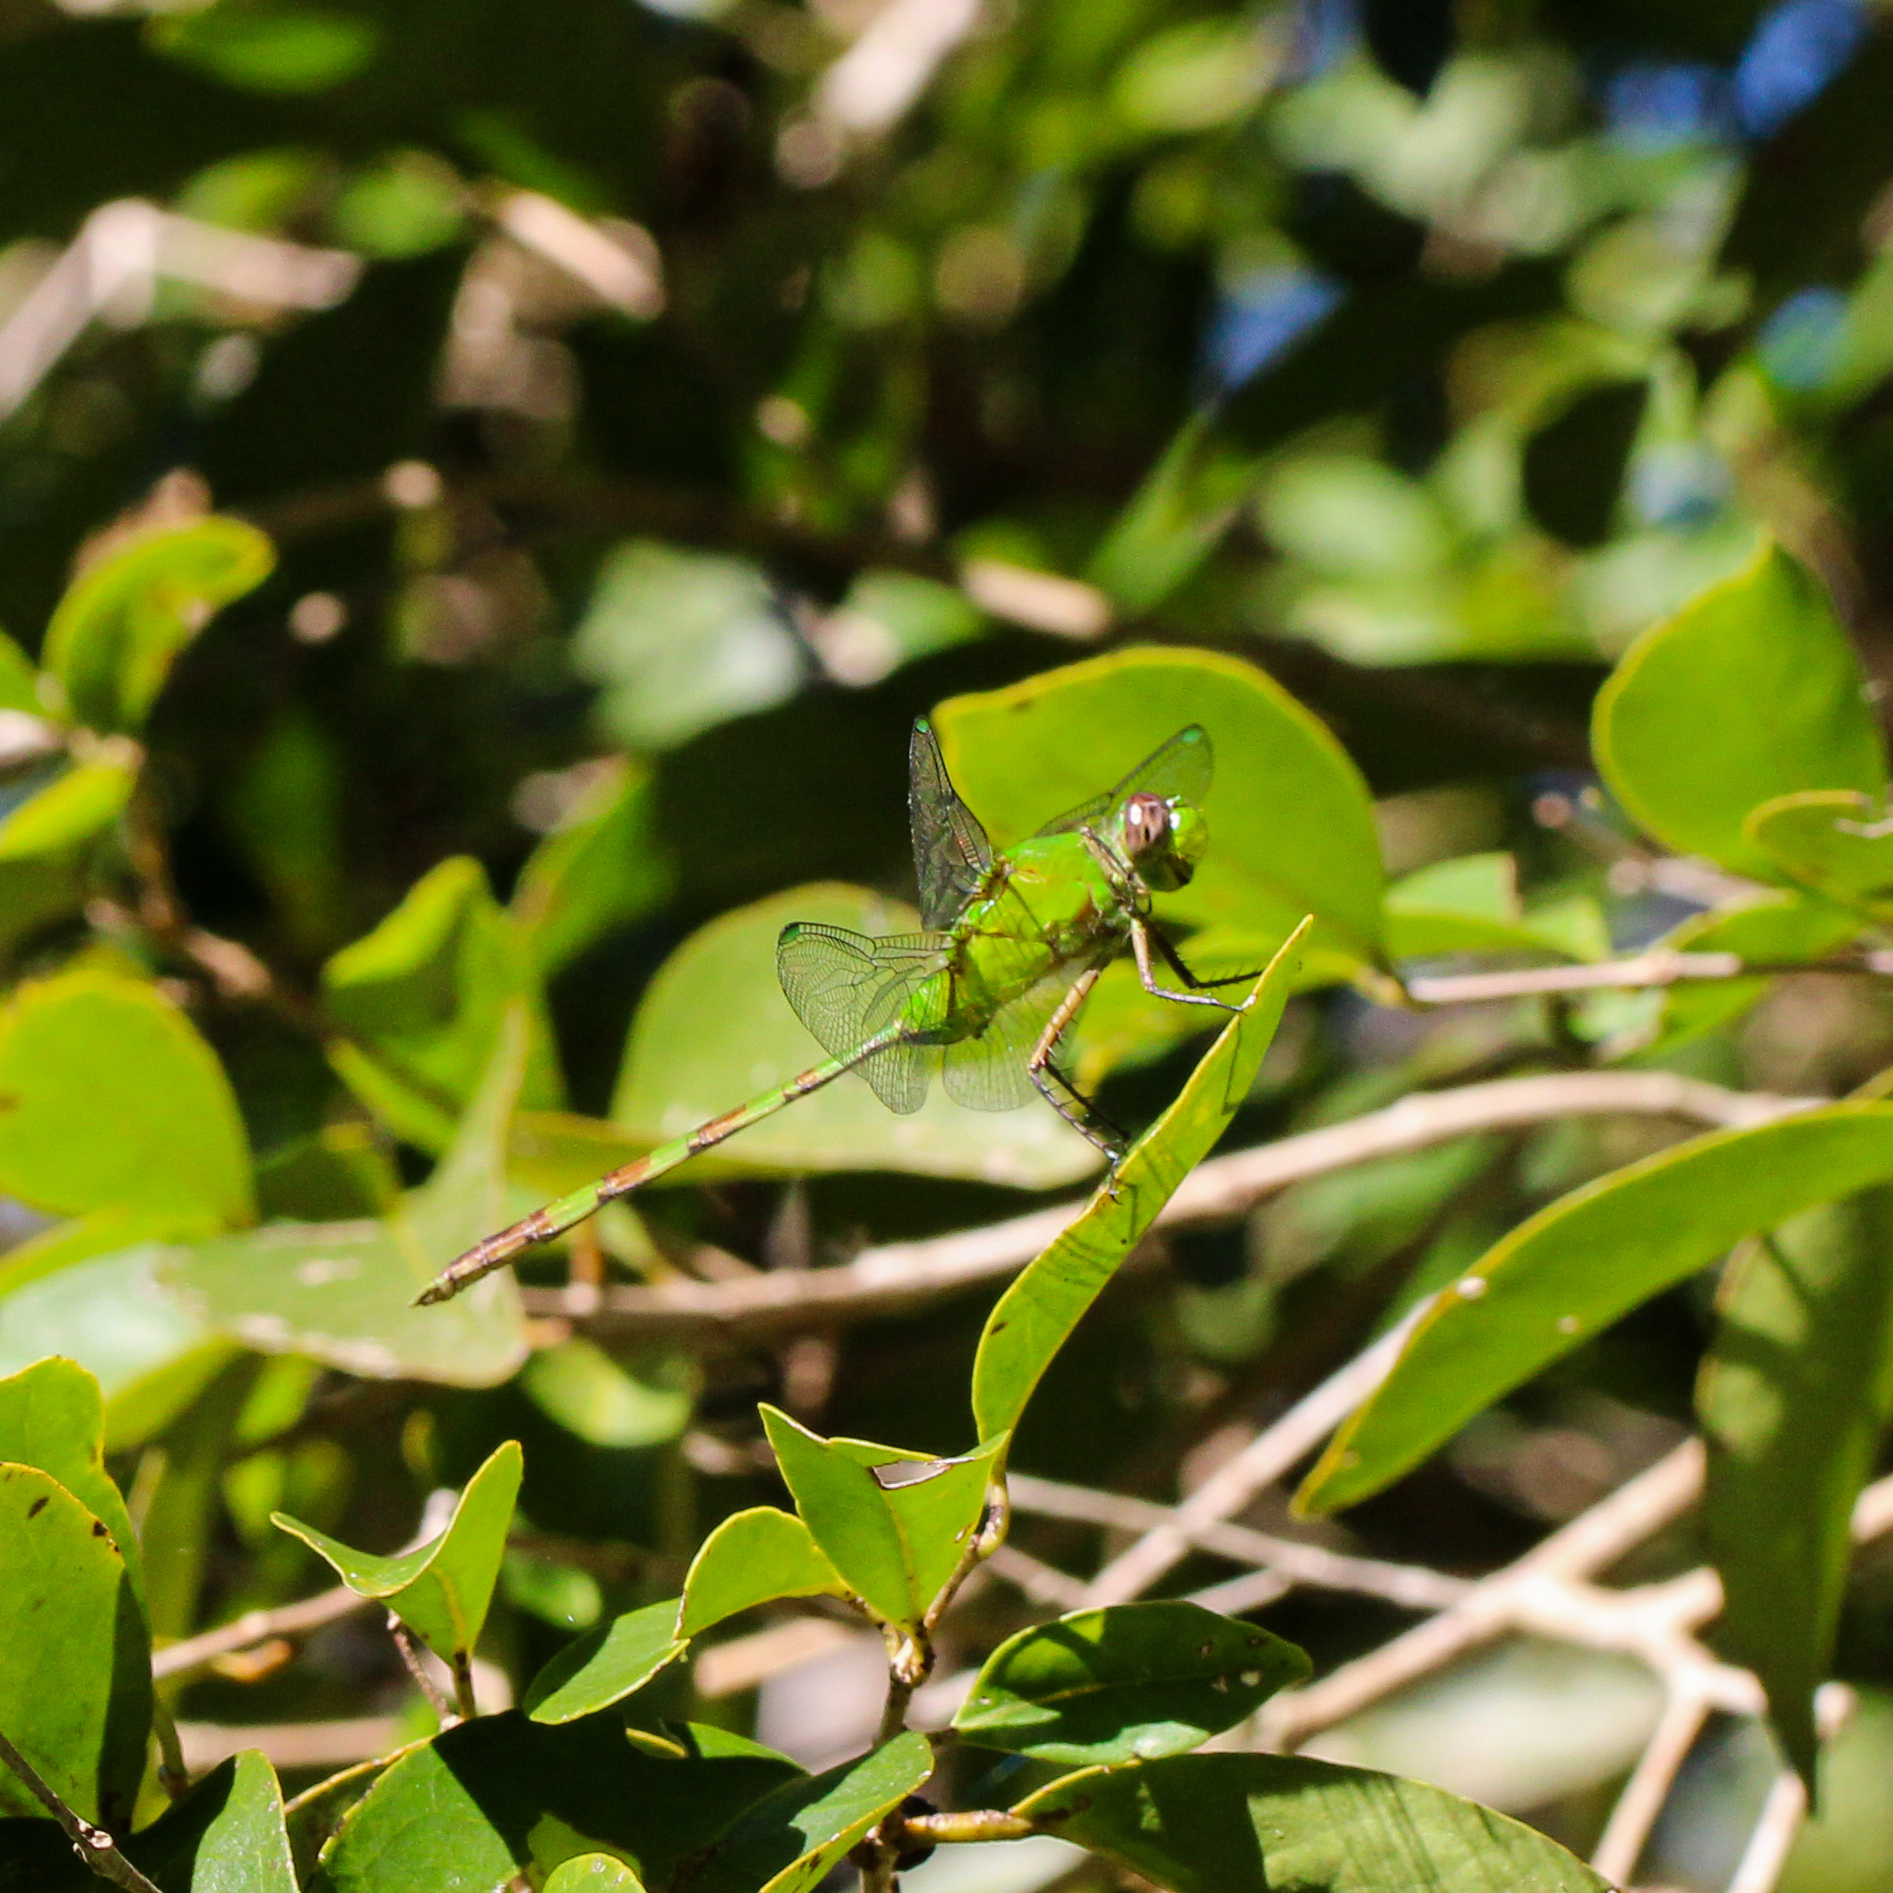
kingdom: Animalia
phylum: Arthropoda
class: Insecta
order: Odonata
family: Libellulidae
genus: Erythemis
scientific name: Erythemis vesiculosa
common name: Great pondhawk
